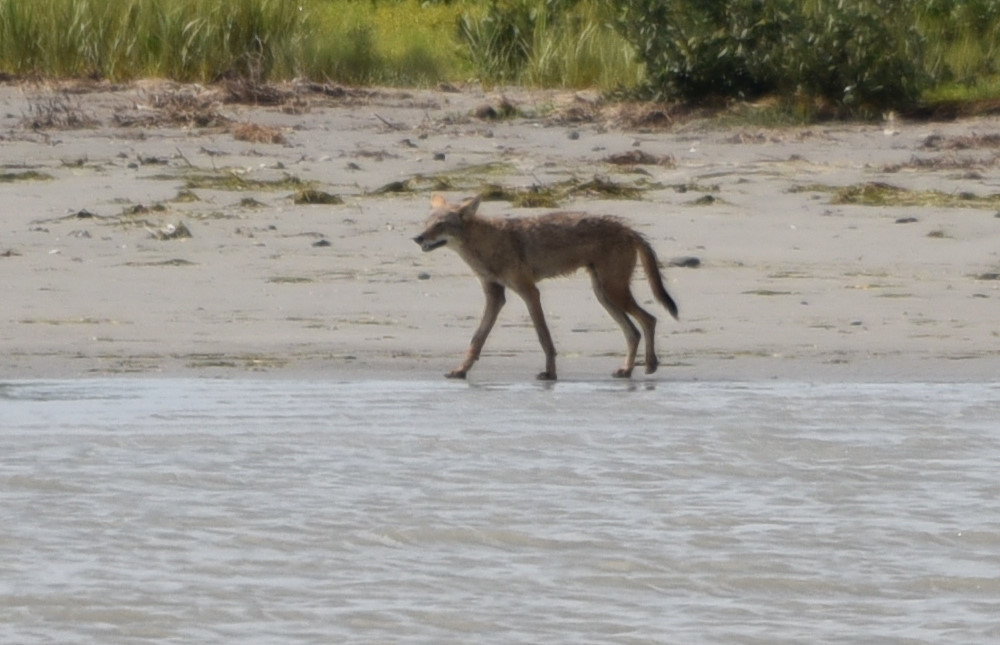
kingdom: Animalia
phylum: Chordata
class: Mammalia
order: Carnivora
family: Canidae
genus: Canis
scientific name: Canis latrans
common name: Coyote
